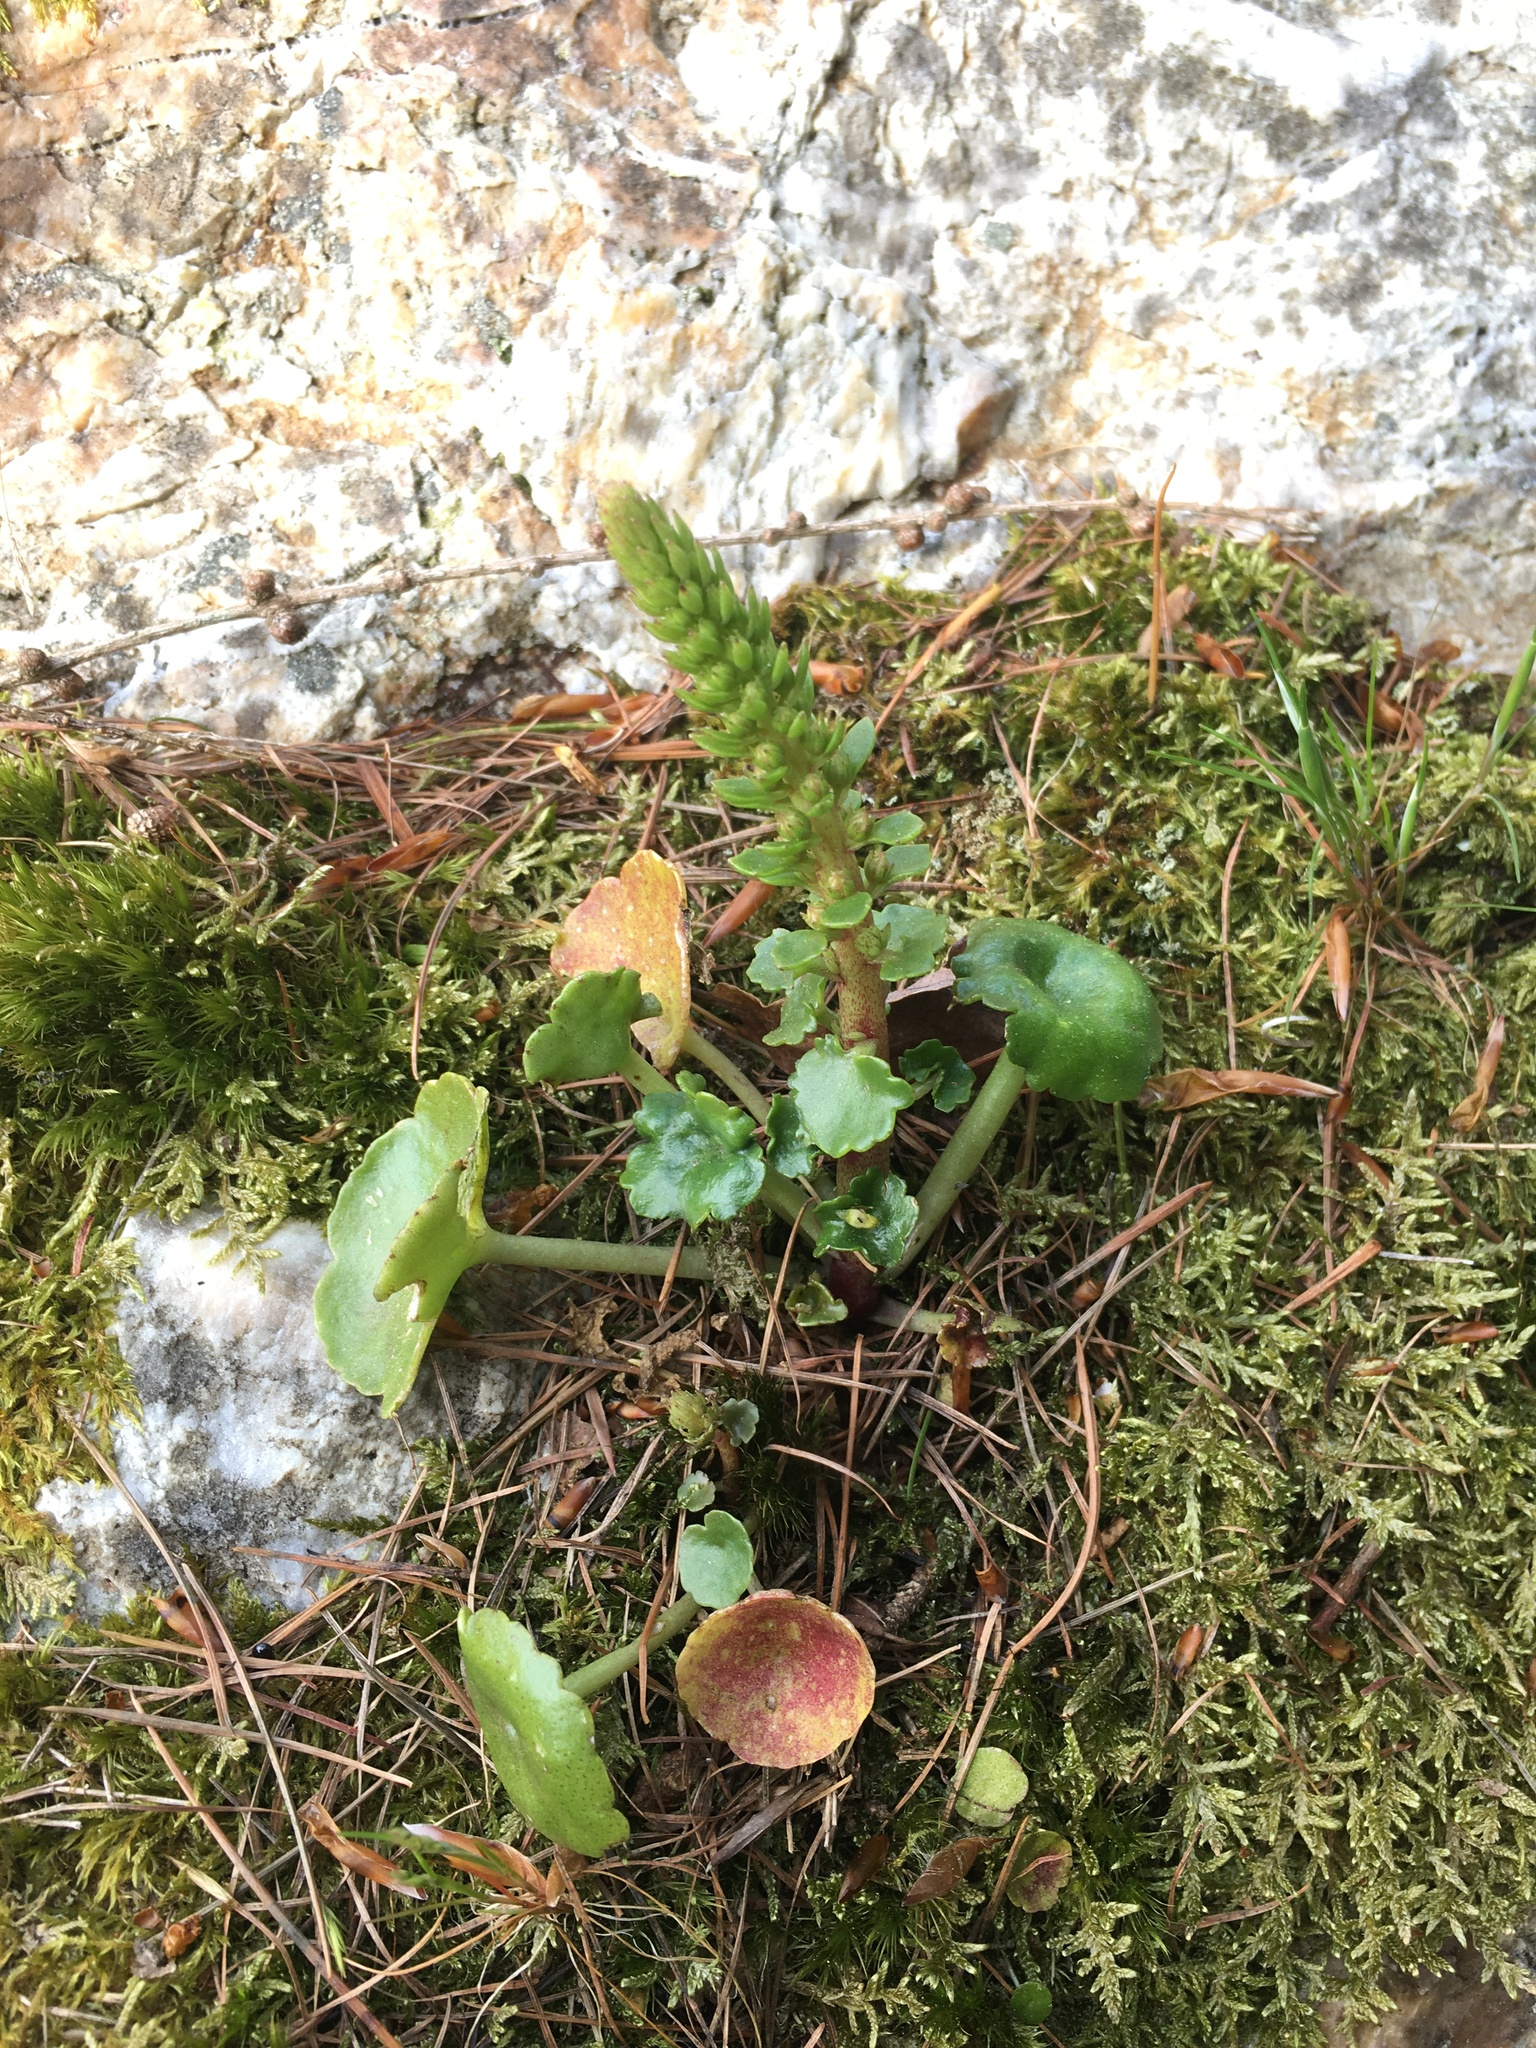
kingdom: Plantae
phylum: Tracheophyta
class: Magnoliopsida
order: Saxifragales
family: Crassulaceae
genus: Umbilicus
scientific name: Umbilicus rupestris
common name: Navelwort
